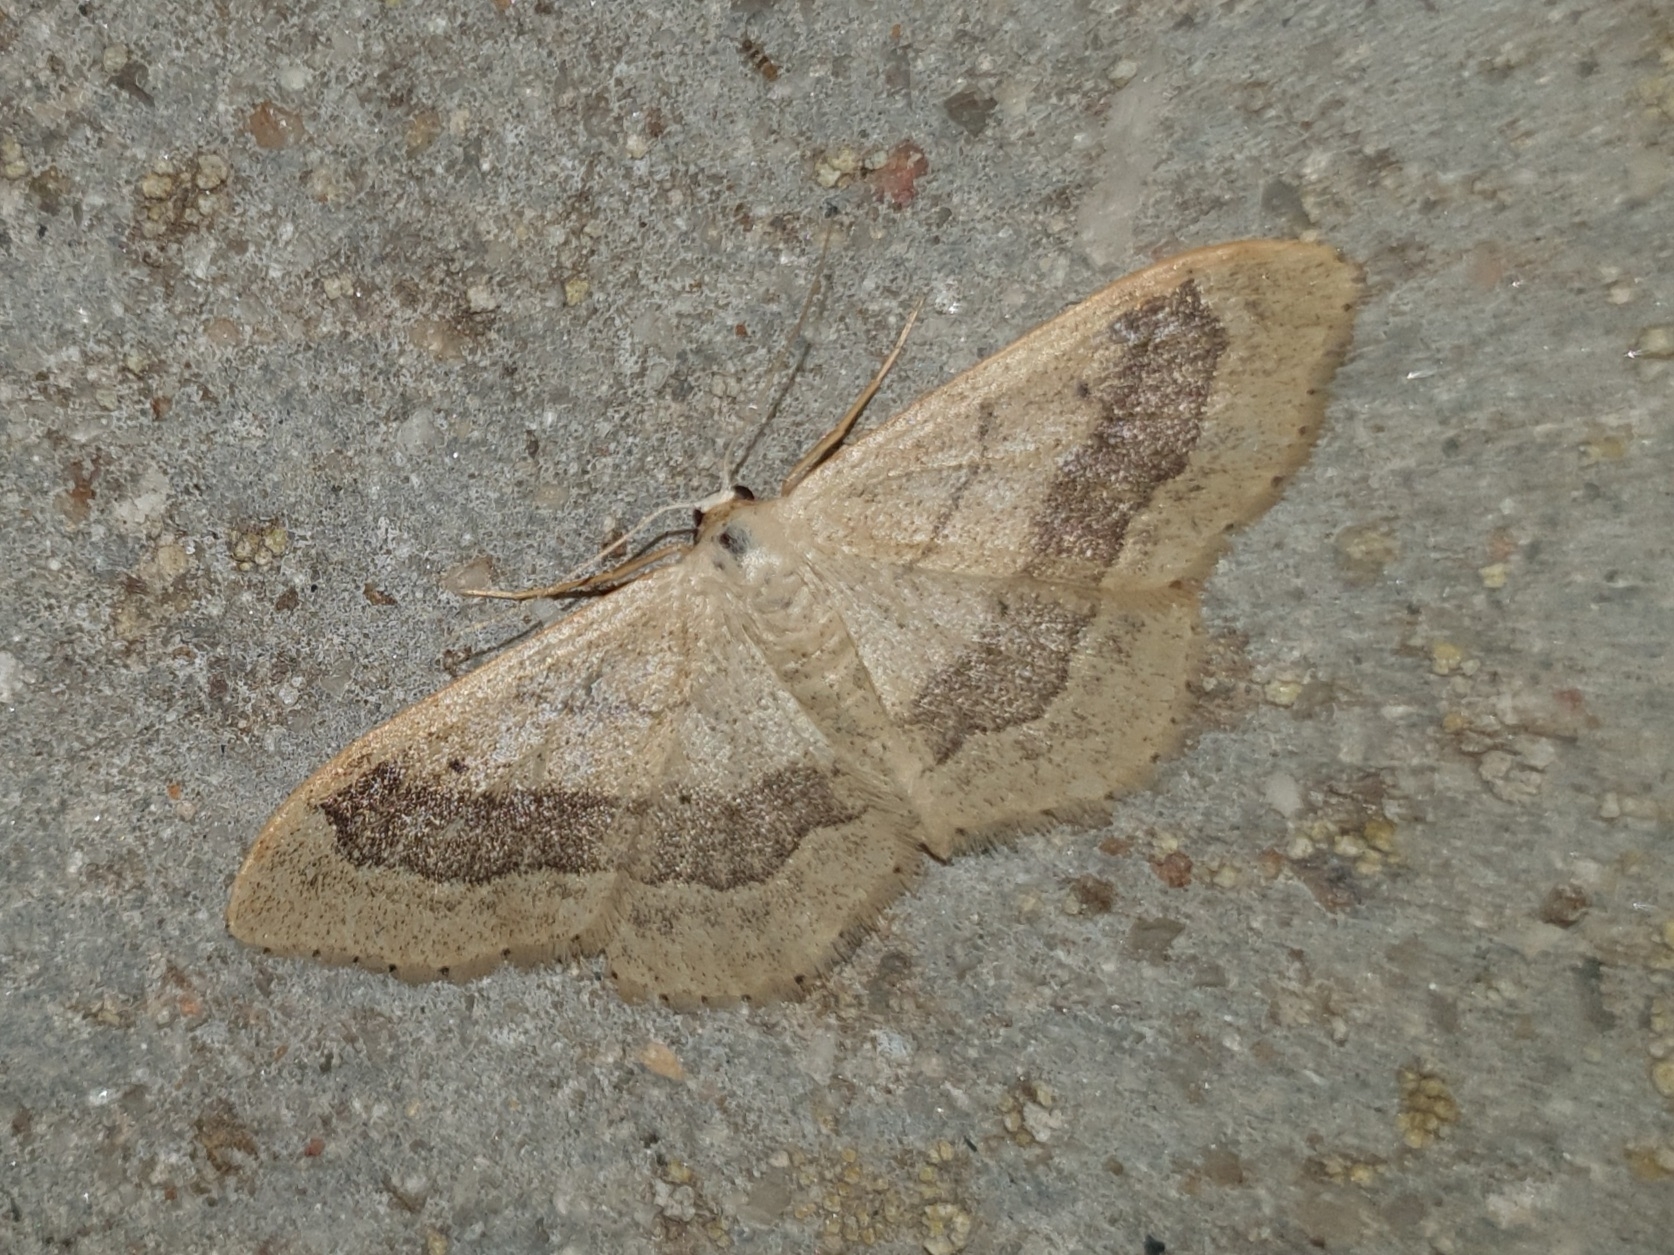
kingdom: Animalia
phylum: Arthropoda
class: Insecta
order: Lepidoptera
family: Geometridae
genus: Idaea
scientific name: Idaea aversata
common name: Riband wave
